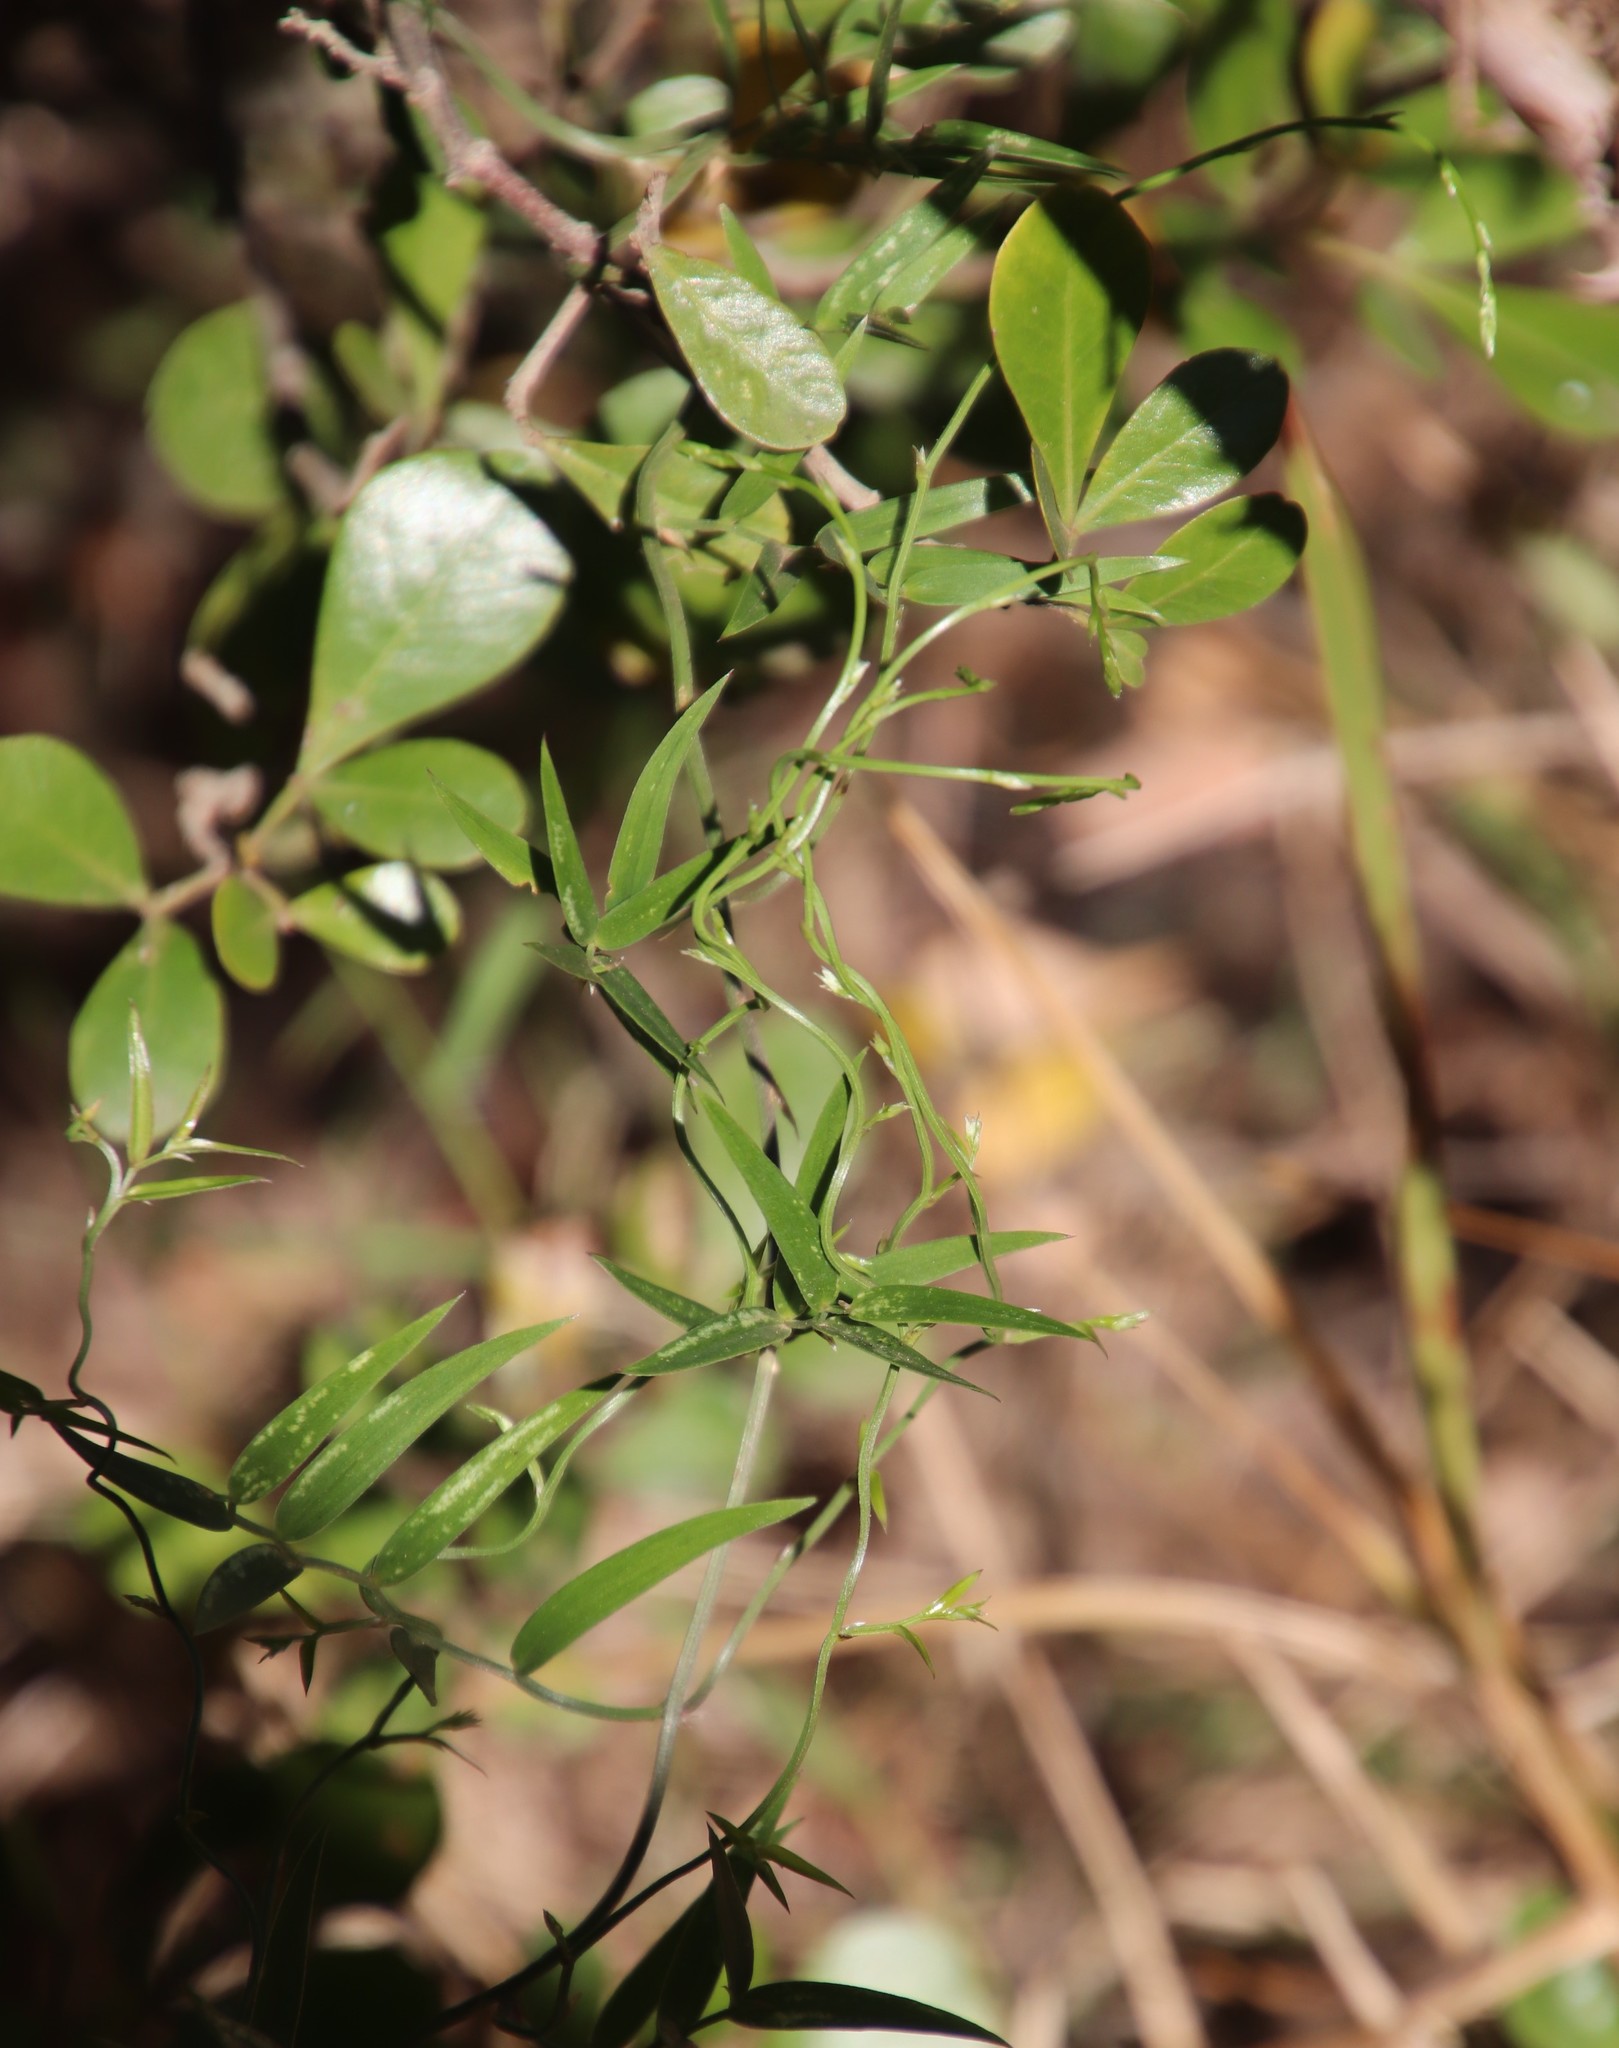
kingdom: Plantae
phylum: Tracheophyta
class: Liliopsida
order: Asparagales
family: Asparagaceae
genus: Asparagus
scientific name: Asparagus kraussianus
